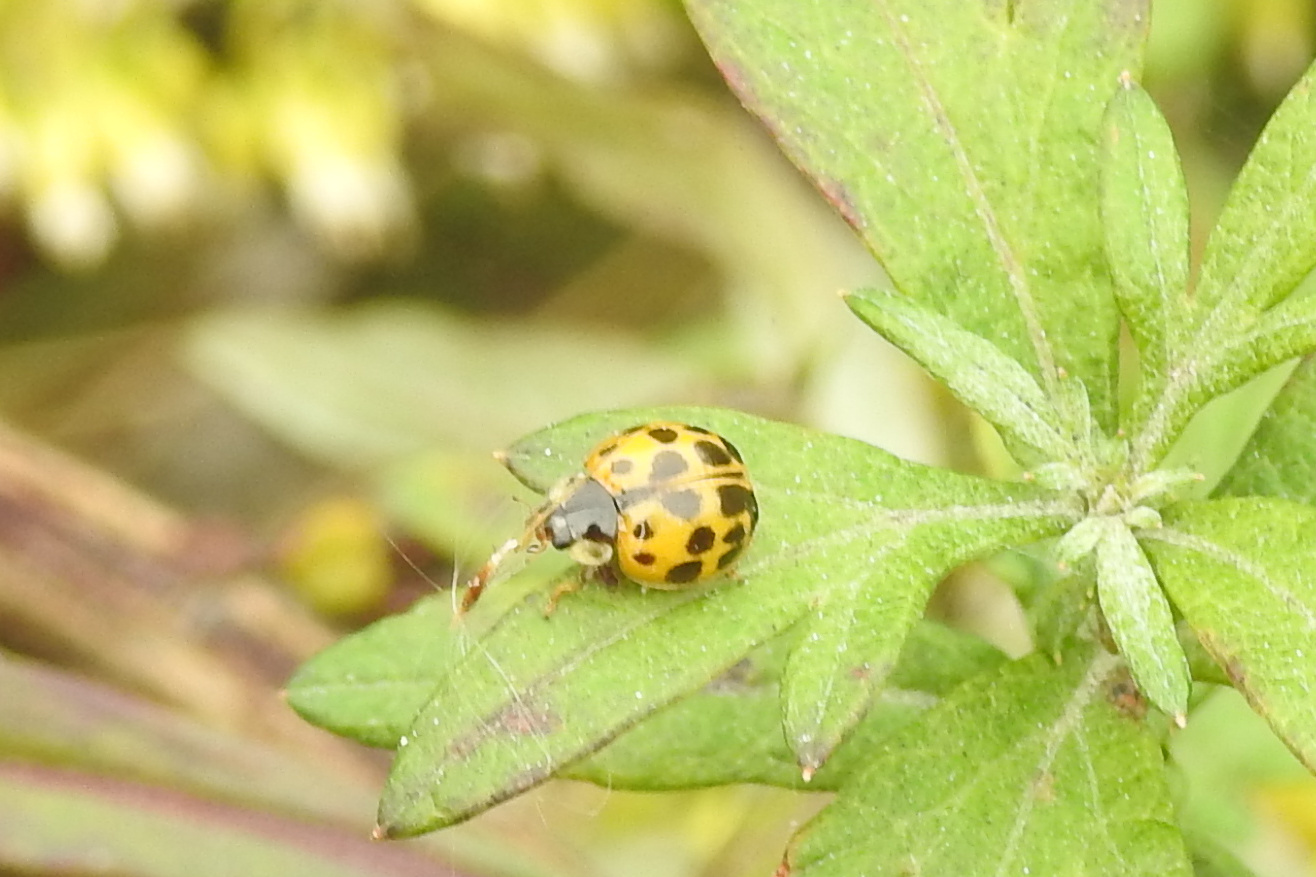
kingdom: Animalia
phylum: Arthropoda
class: Insecta
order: Coleoptera
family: Coccinellidae
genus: Harmonia
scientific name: Harmonia axyridis
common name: Harlequin ladybird
